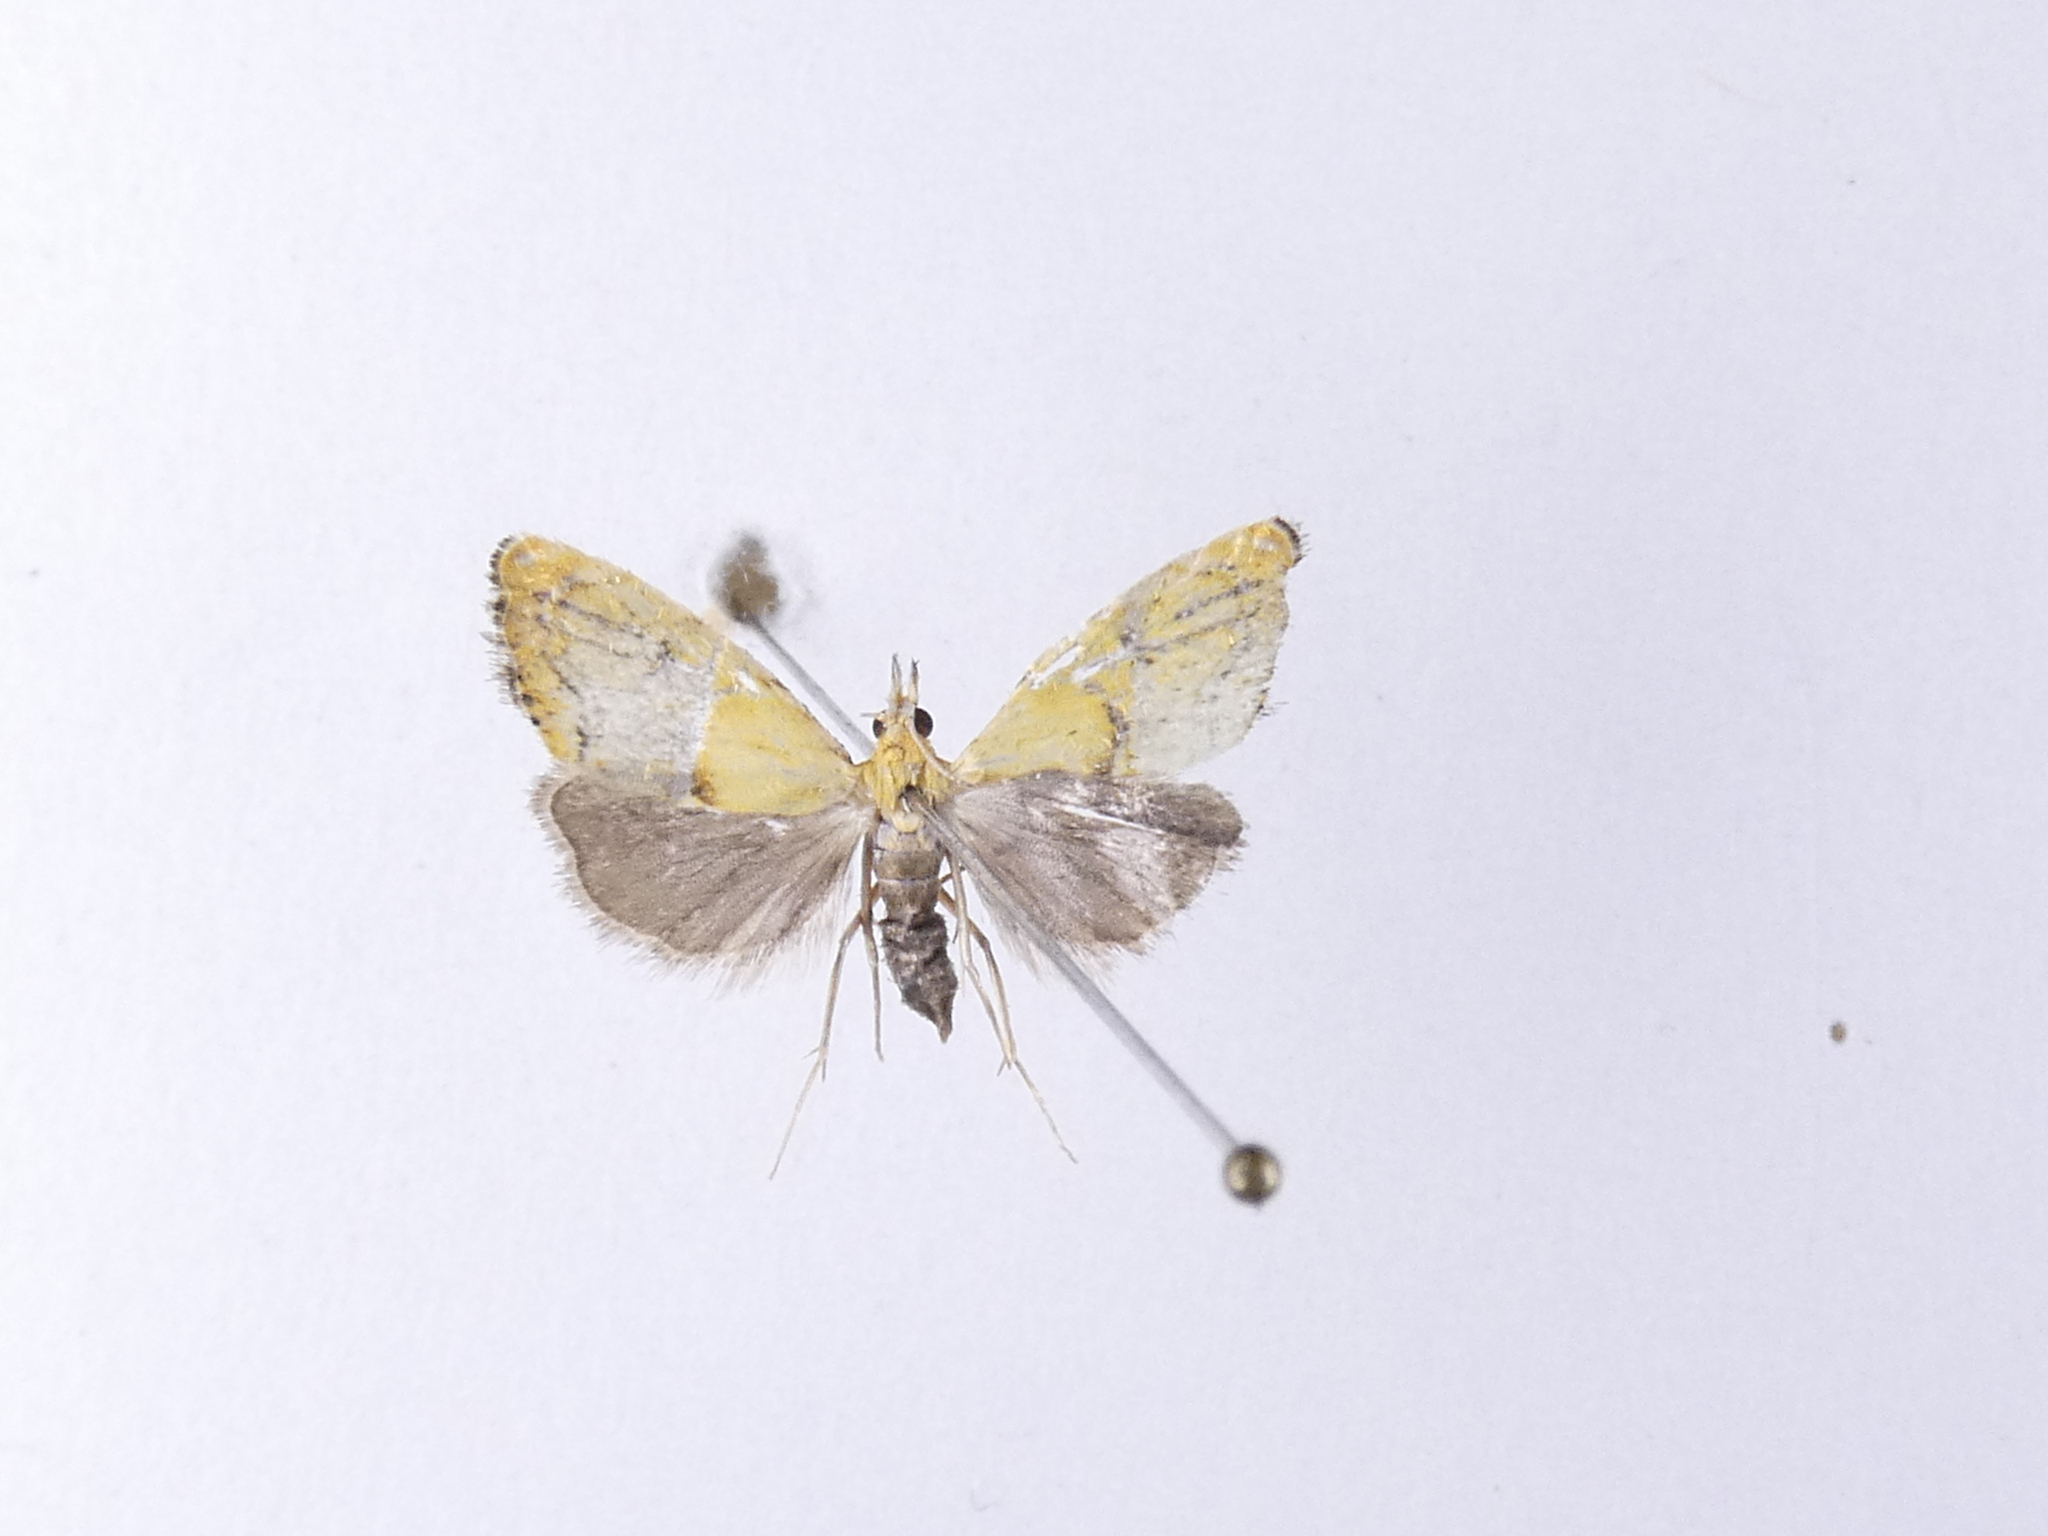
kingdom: Animalia
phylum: Arthropoda
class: Insecta
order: Lepidoptera
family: Crambidae
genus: Glaucocharis
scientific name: Glaucocharis auriscriptella
